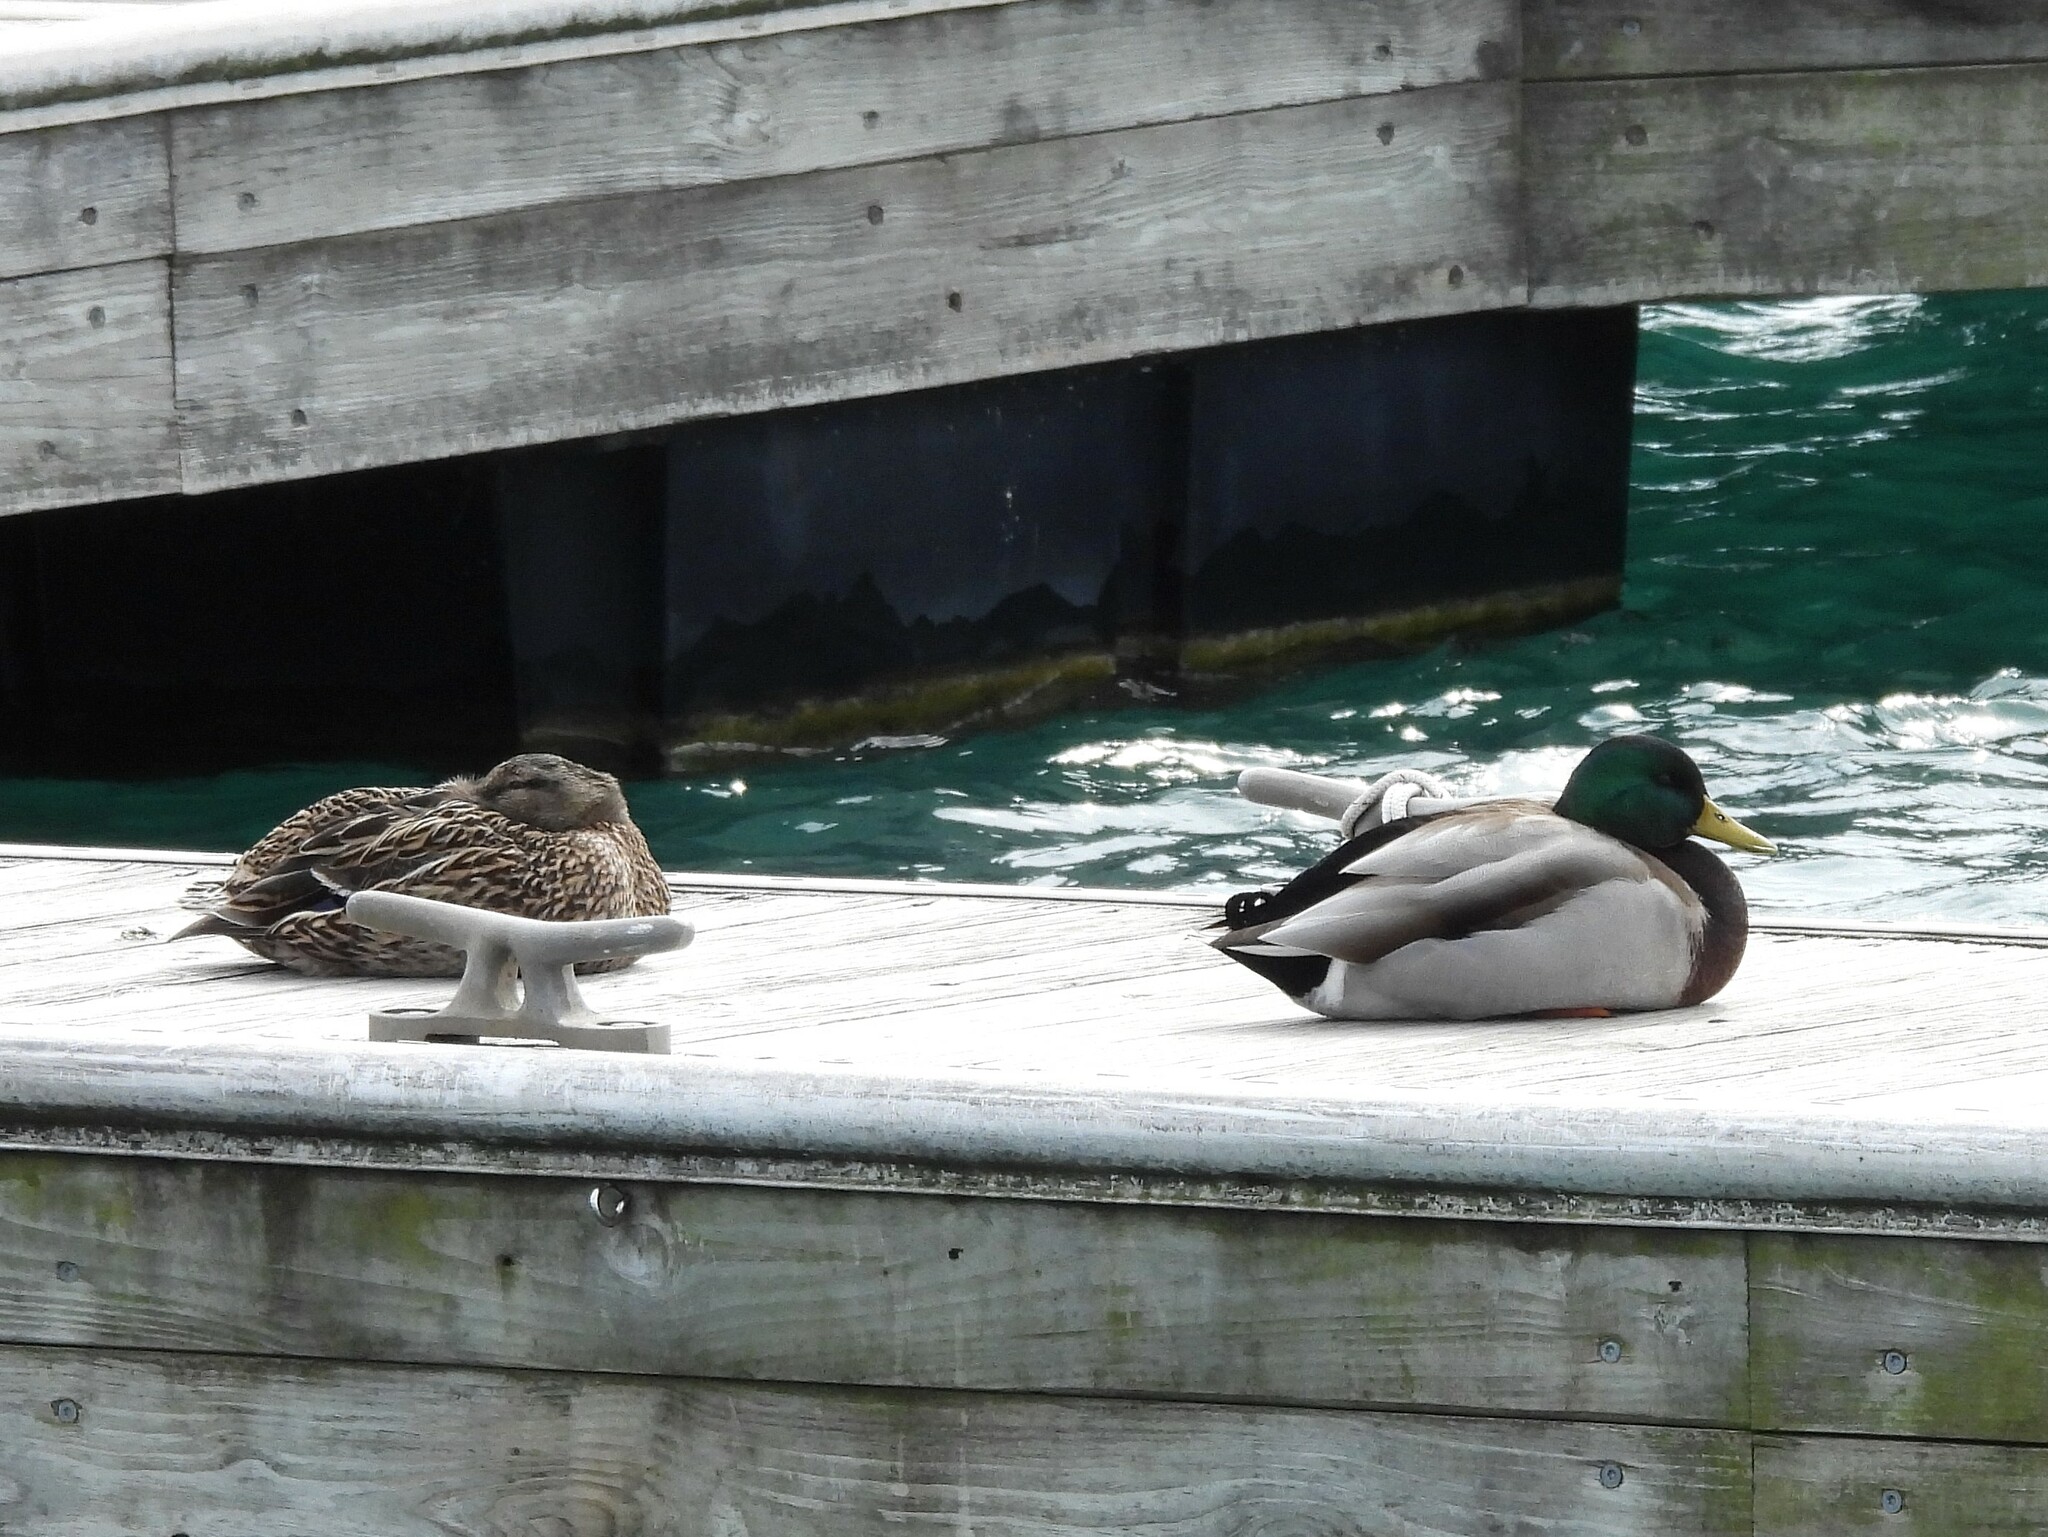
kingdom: Animalia
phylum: Chordata
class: Aves
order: Anseriformes
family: Anatidae
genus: Anas
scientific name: Anas platyrhynchos
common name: Mallard
